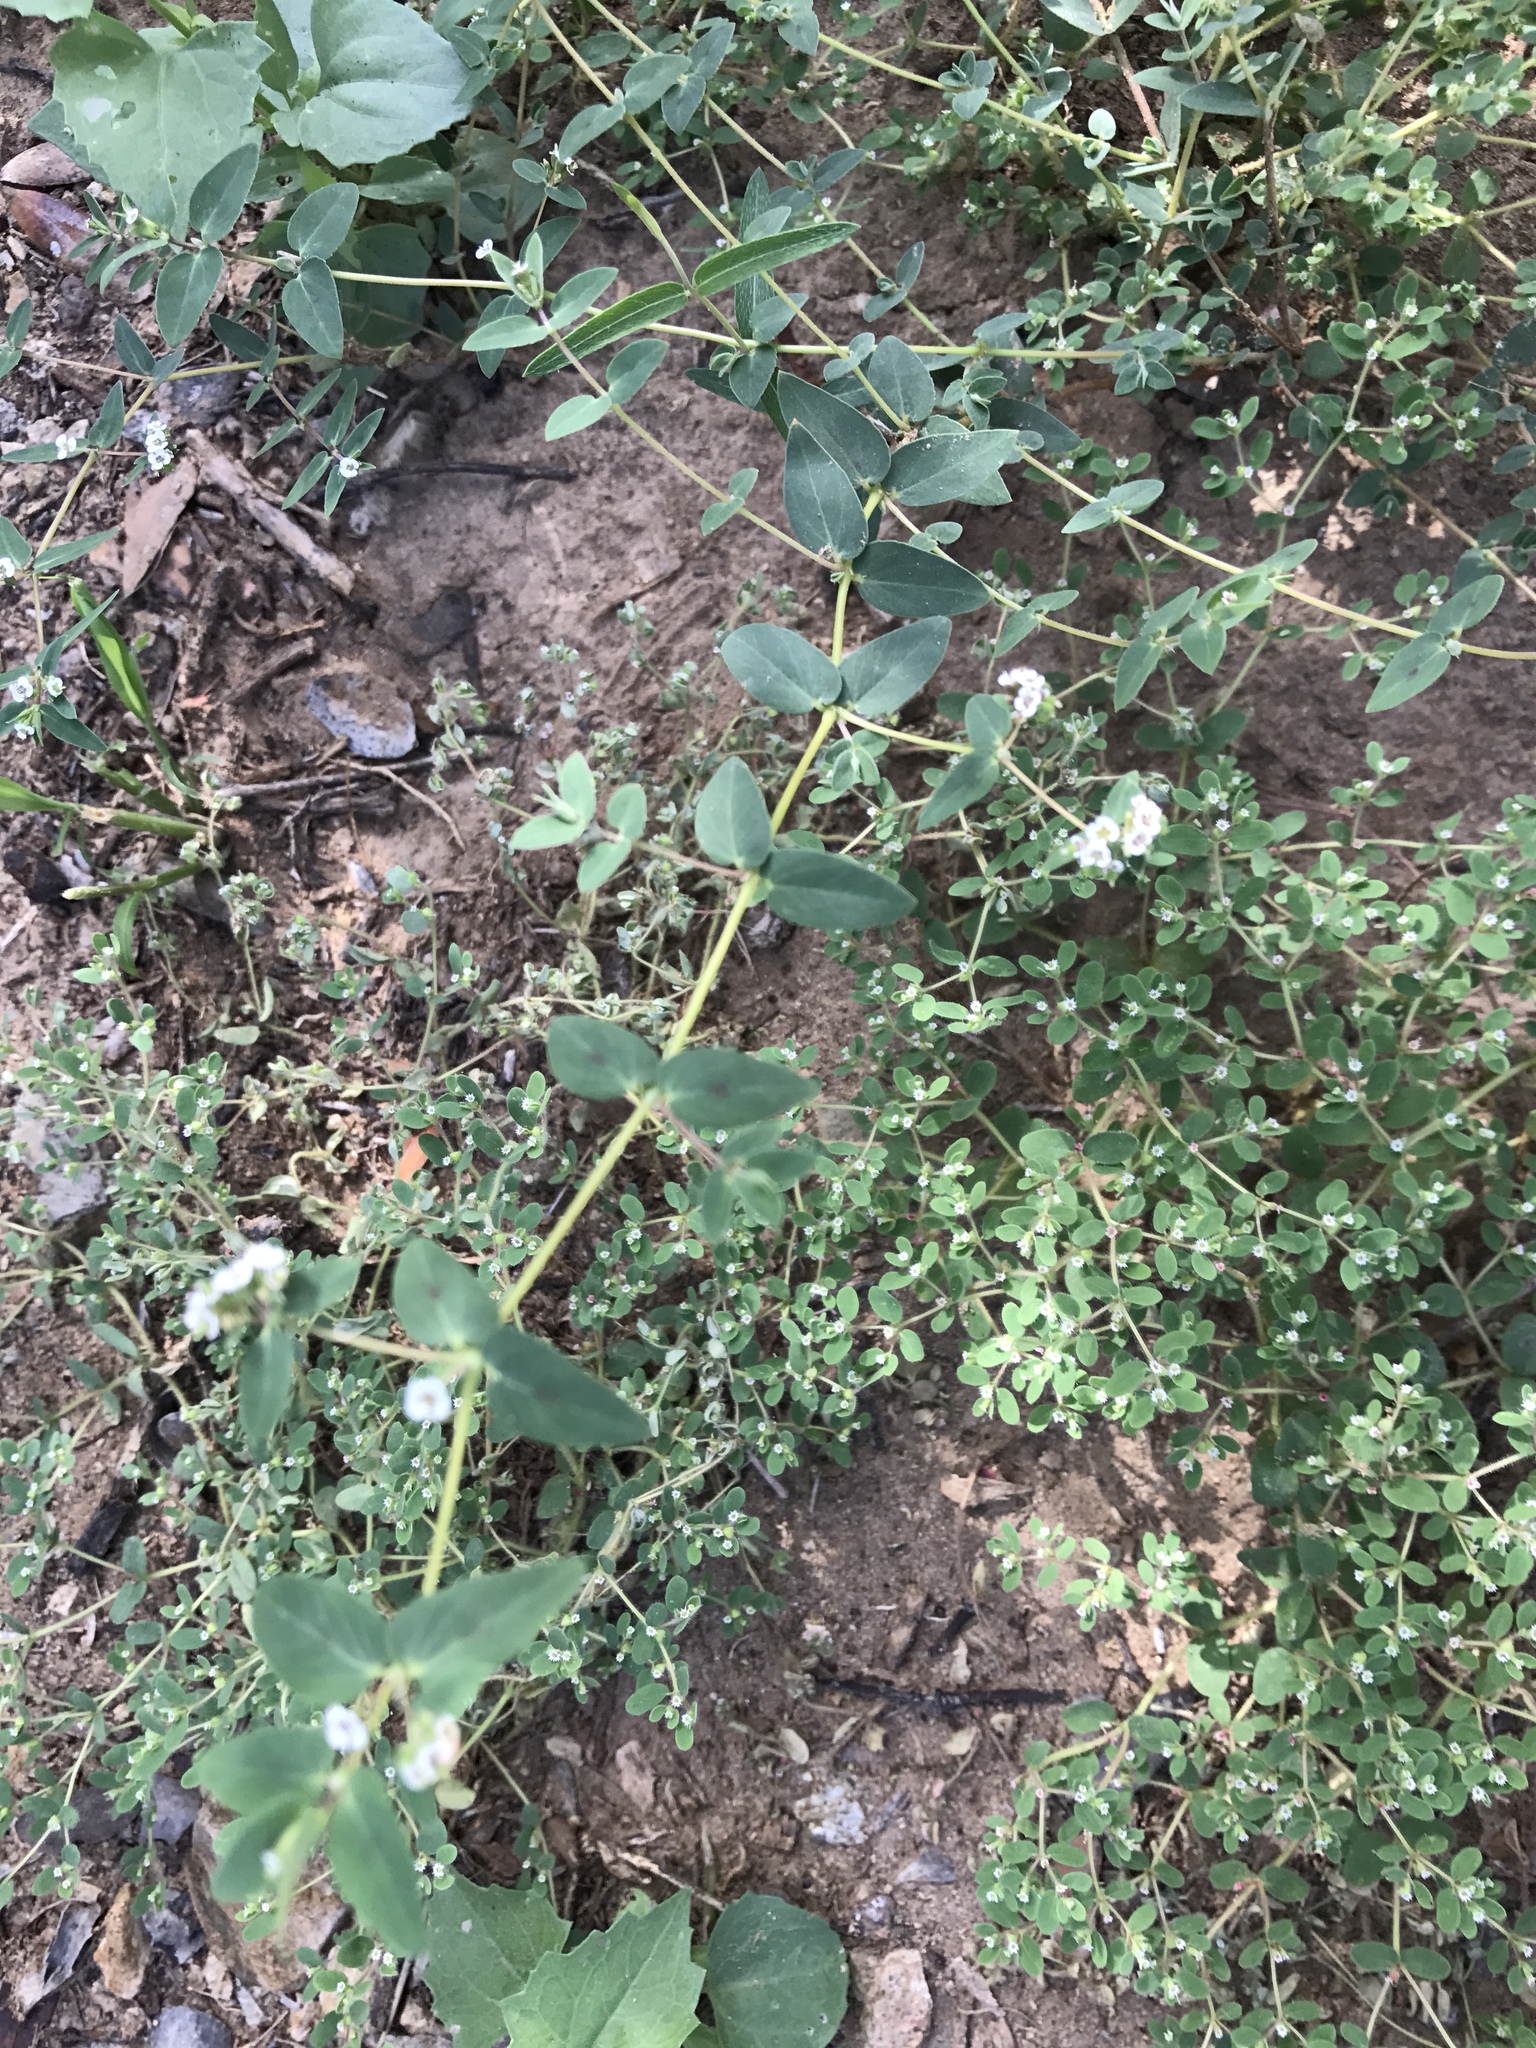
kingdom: Plantae
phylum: Tracheophyta
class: Magnoliopsida
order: Malpighiales
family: Euphorbiaceae
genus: Euphorbia
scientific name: Euphorbia capitellata
